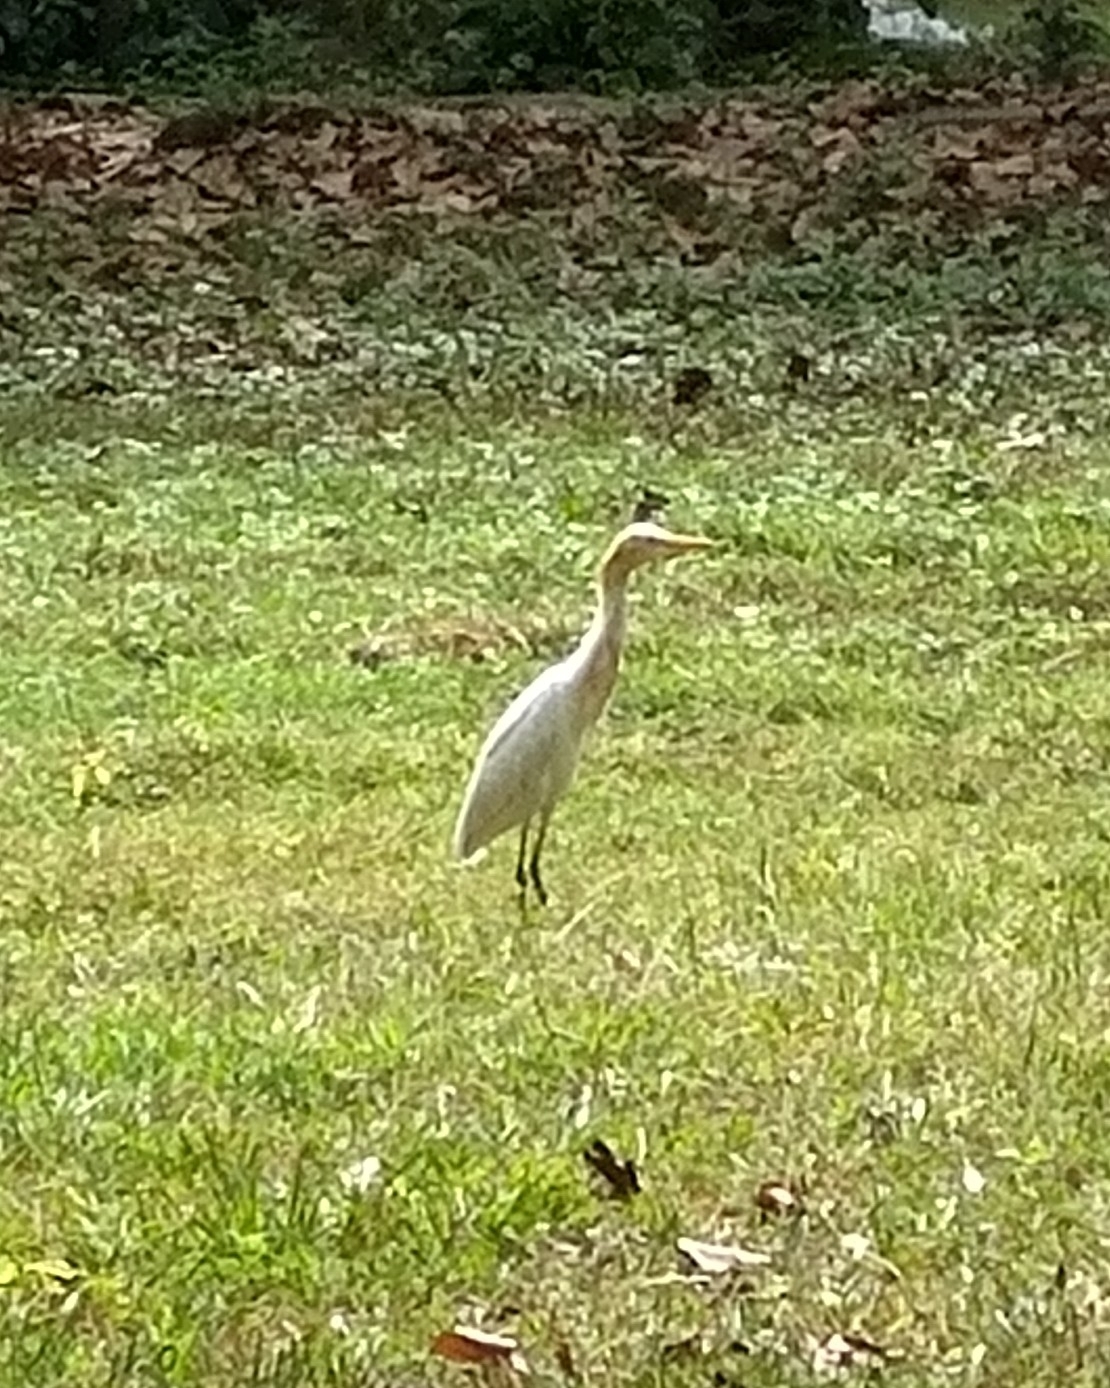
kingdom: Animalia
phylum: Chordata
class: Aves
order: Pelecaniformes
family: Ardeidae
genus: Bubulcus
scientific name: Bubulcus coromandus
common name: Eastern cattle egret
